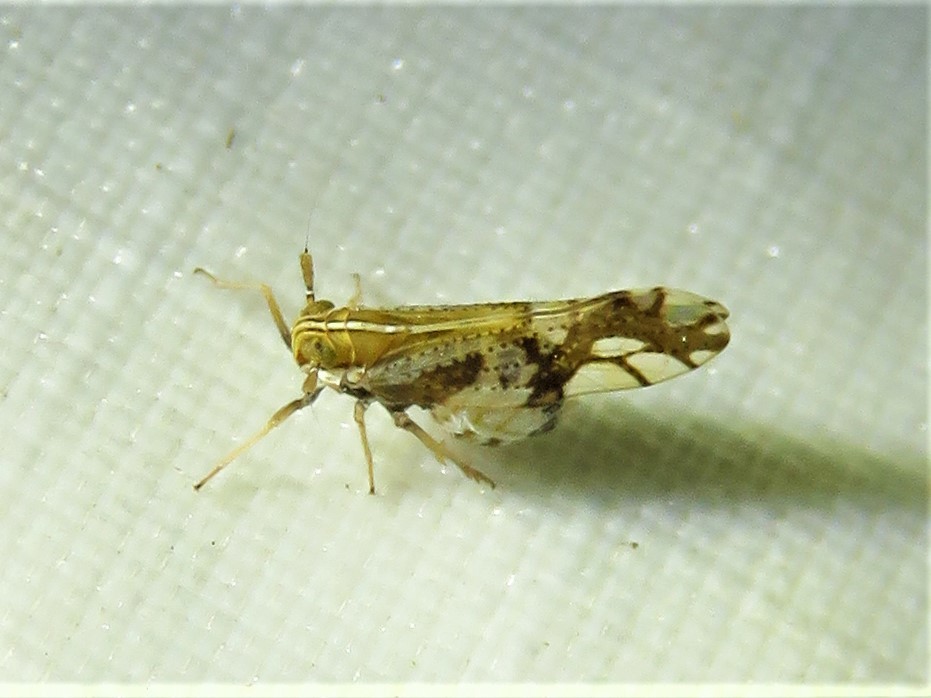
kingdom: Animalia
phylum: Arthropoda
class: Insecta
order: Hemiptera
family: Delphacidae
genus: Liburniella
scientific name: Liburniella ornata
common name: Ornate planthopper
